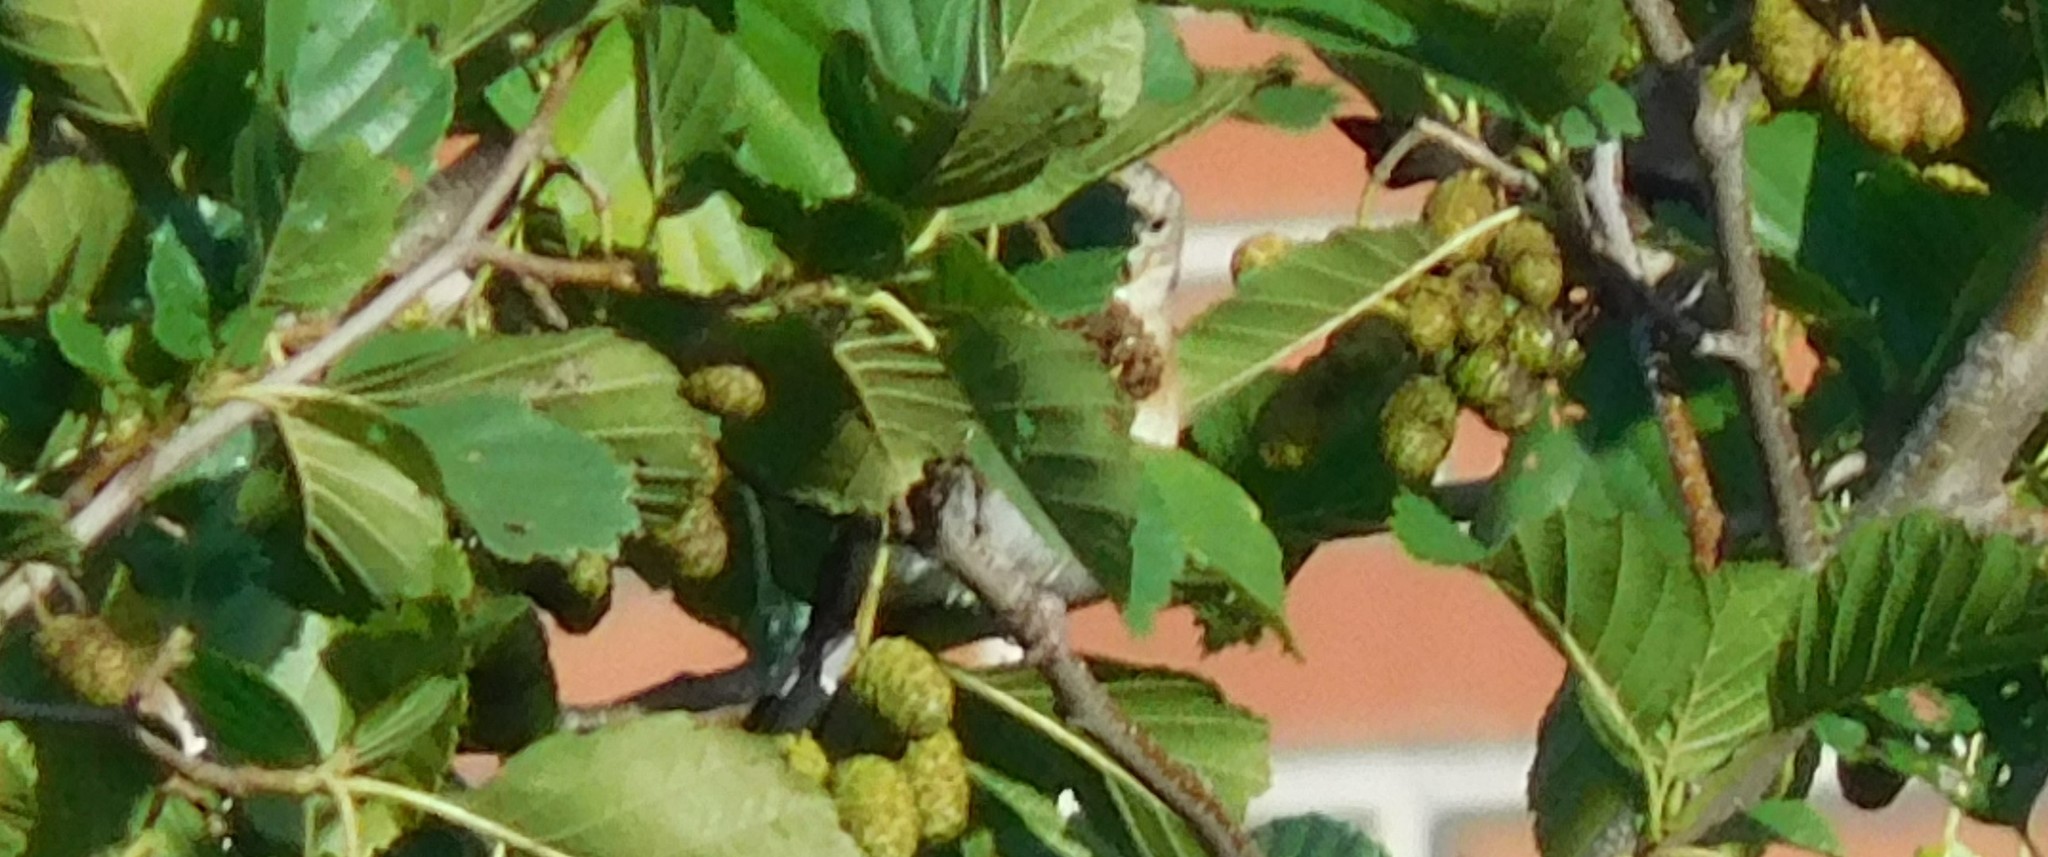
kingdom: Animalia
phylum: Chordata
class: Aves
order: Passeriformes
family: Fringillidae
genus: Carduelis
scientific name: Carduelis carduelis
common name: European goldfinch
